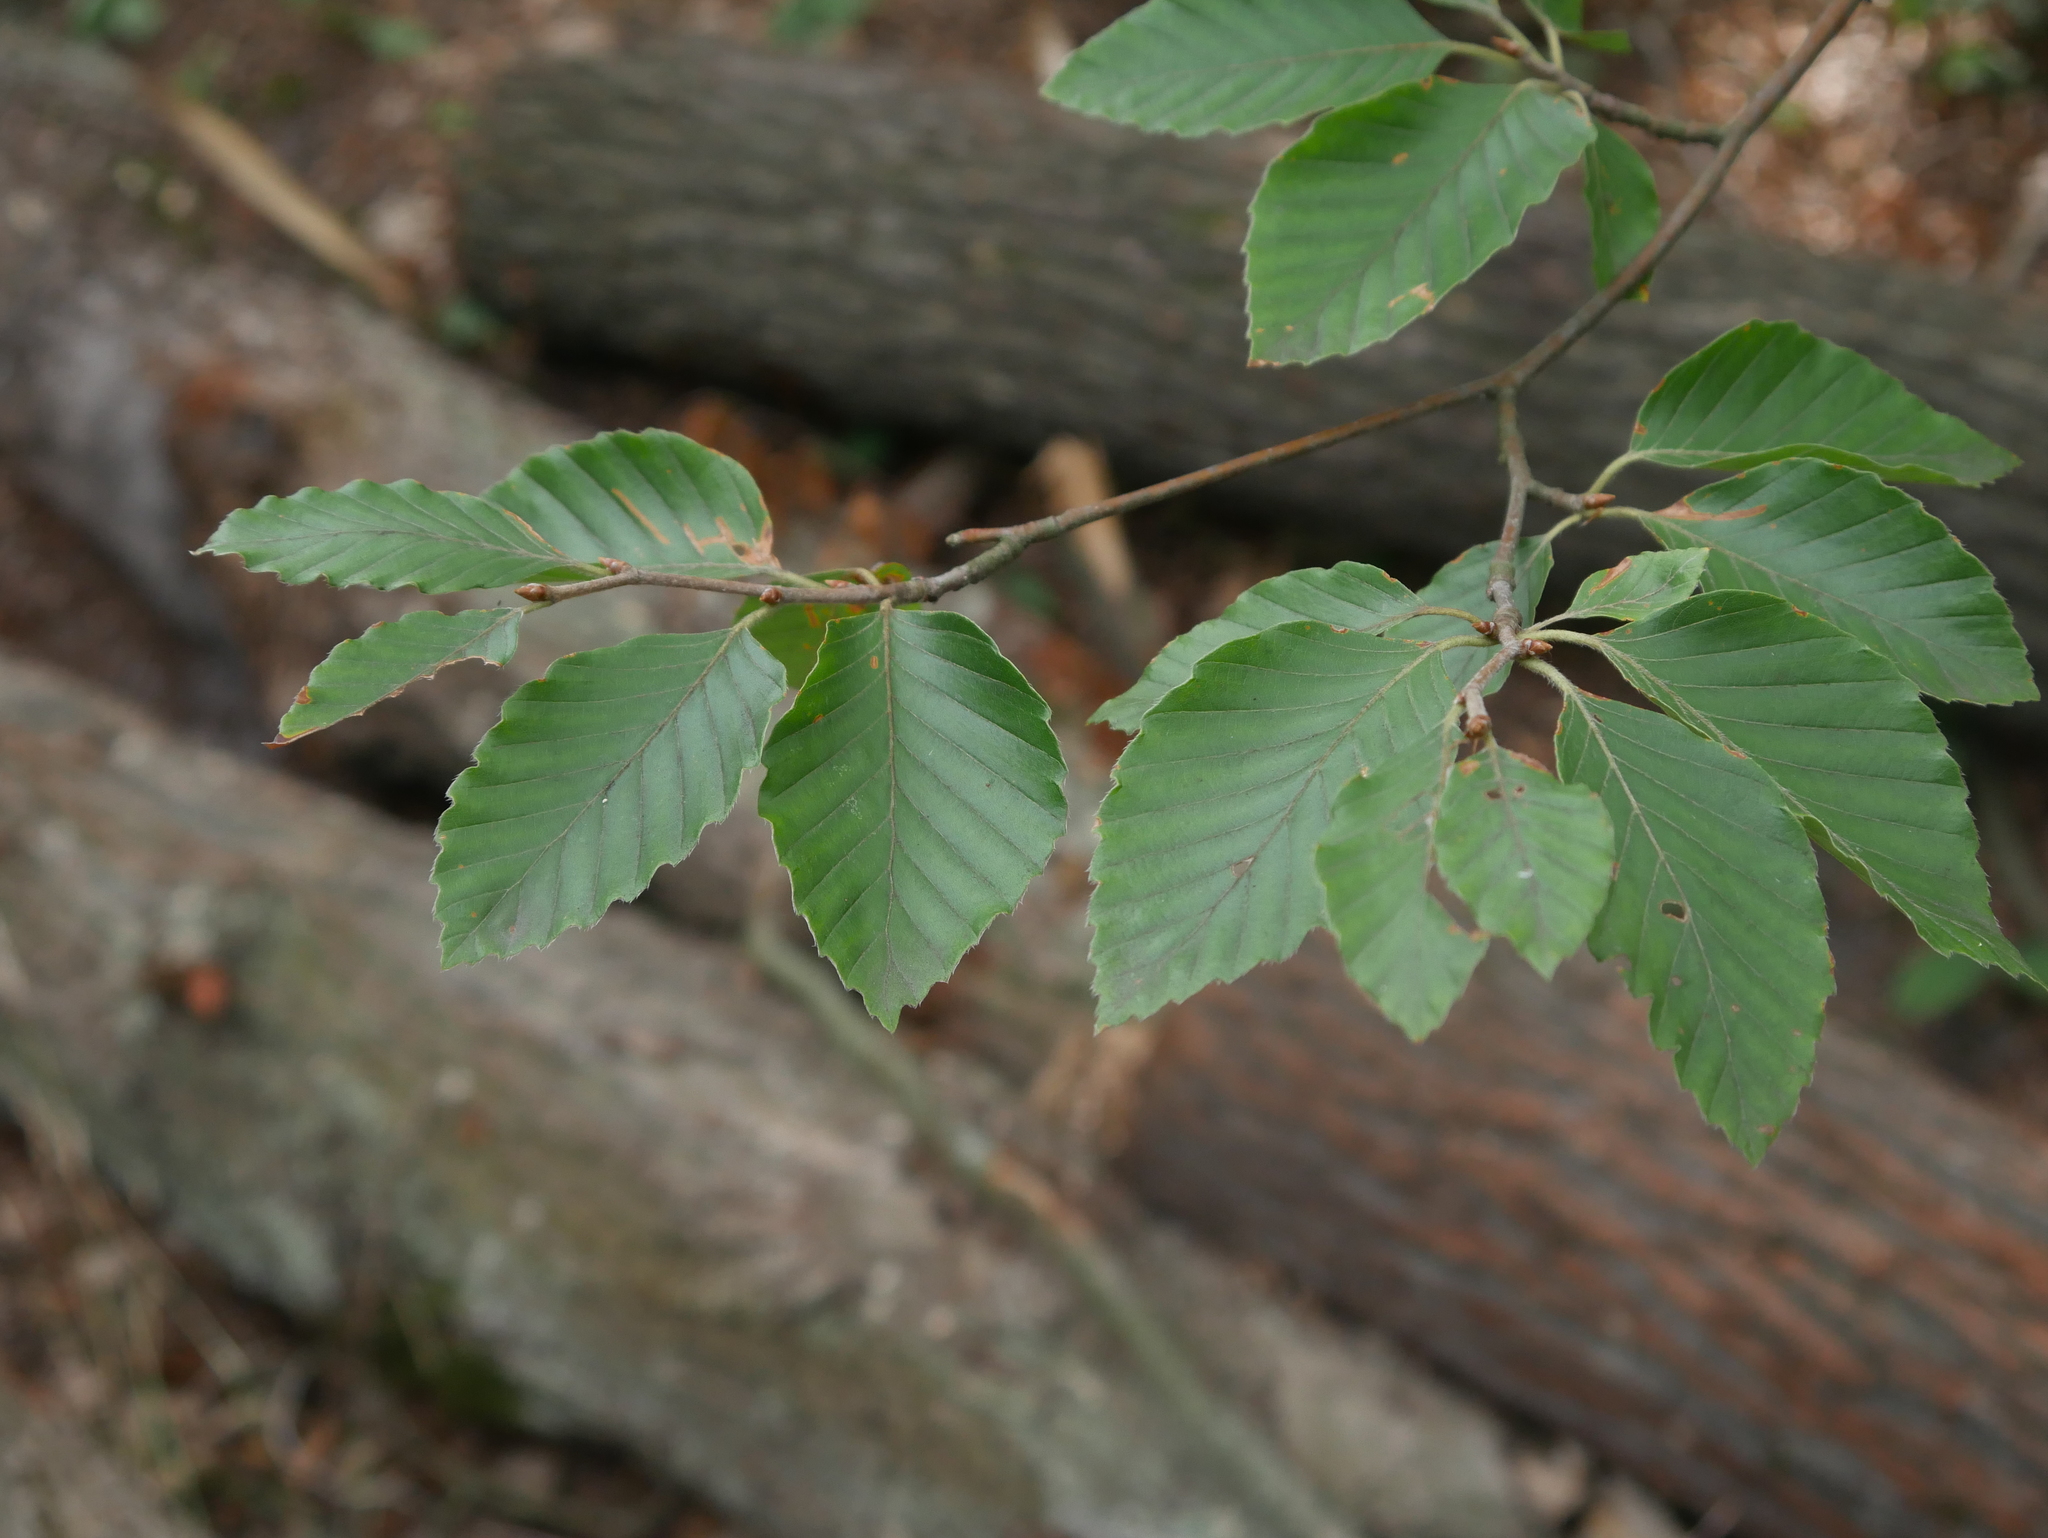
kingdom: Plantae
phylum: Tracheophyta
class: Magnoliopsida
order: Fagales
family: Fagaceae
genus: Fagus
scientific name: Fagus sylvatica
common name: Beech
